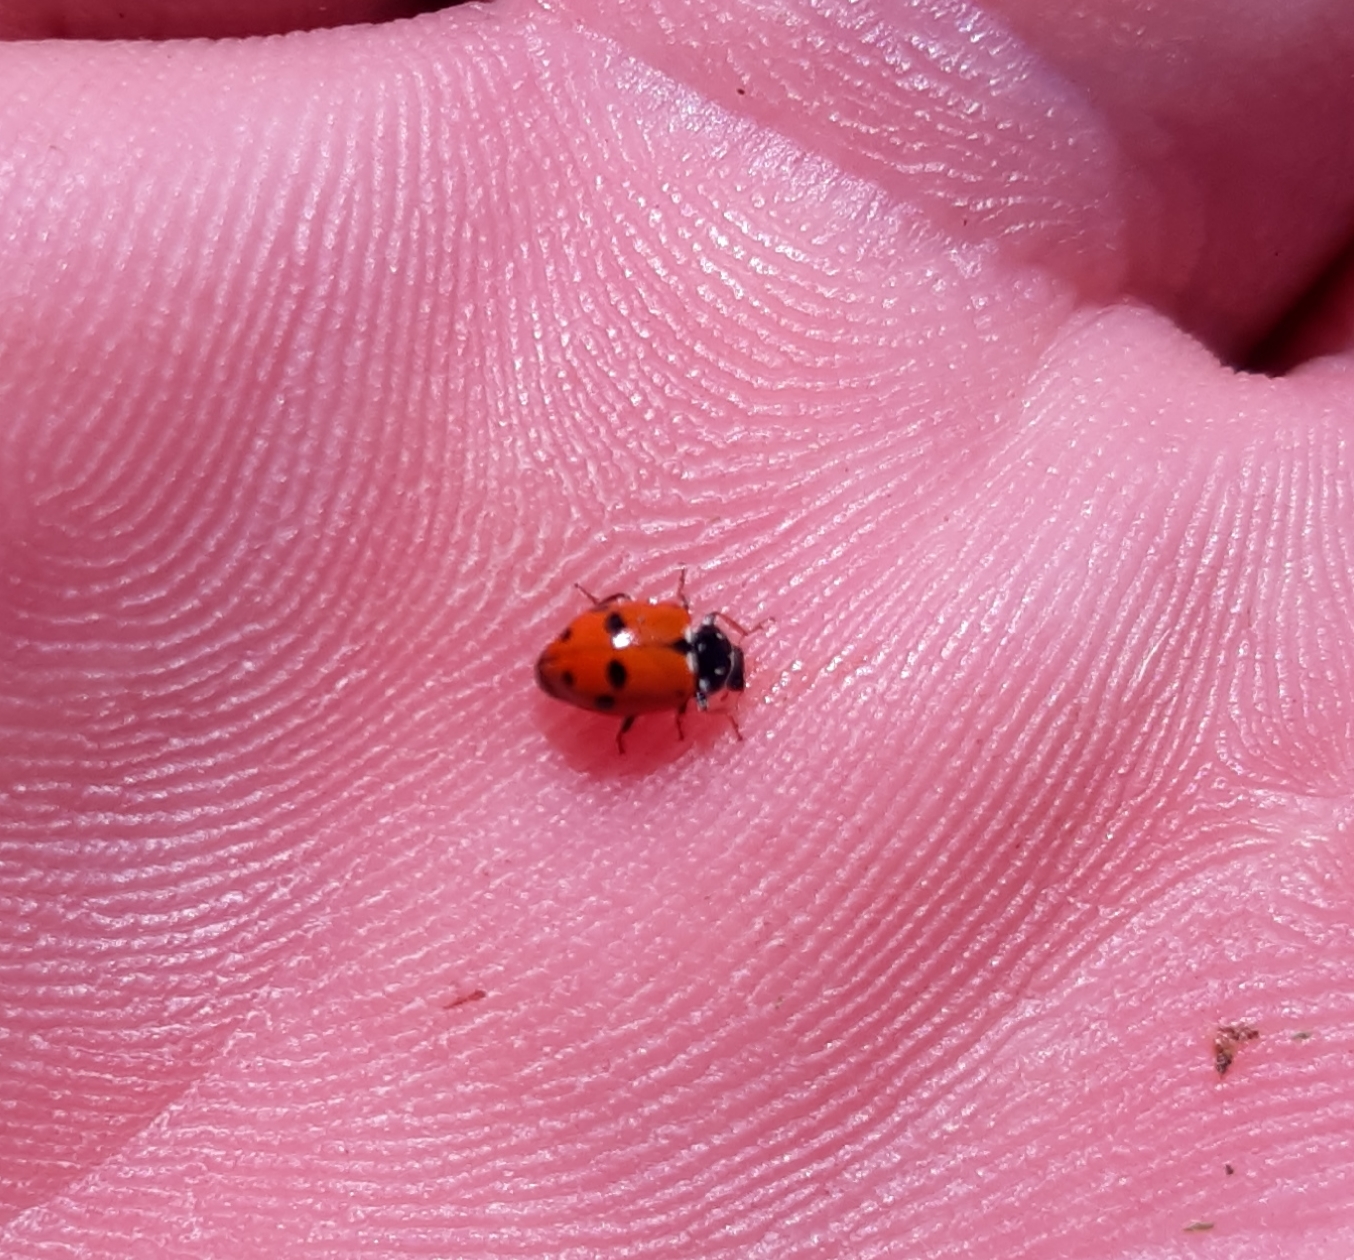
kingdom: Animalia
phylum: Arthropoda
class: Insecta
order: Coleoptera
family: Coccinellidae
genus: Hippodamia
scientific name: Hippodamia variegata
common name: Ladybird beetle
